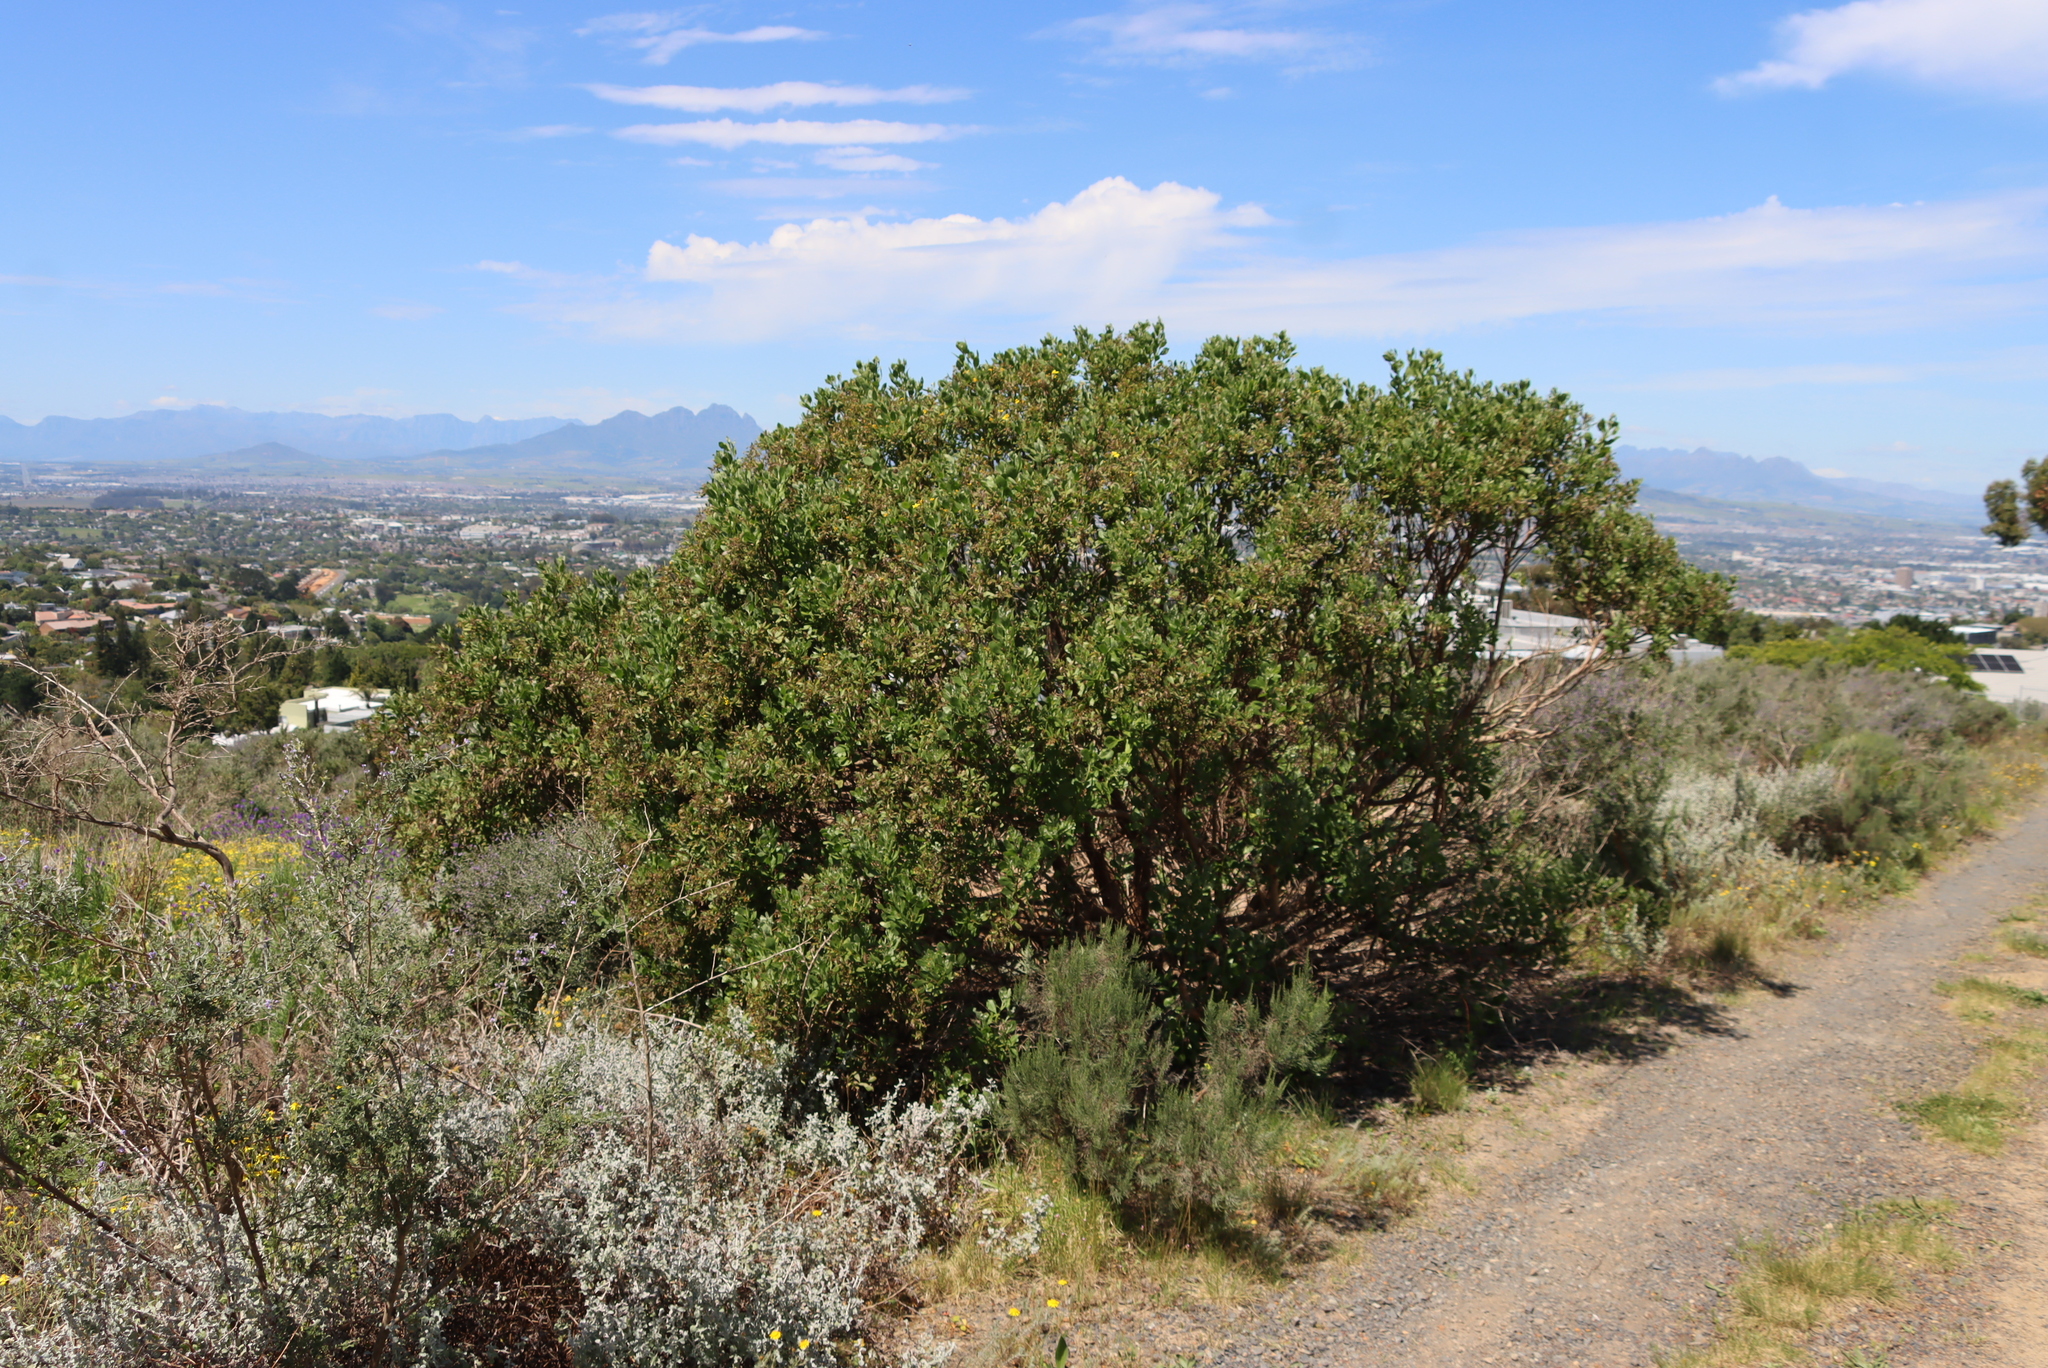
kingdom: Plantae
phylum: Tracheophyta
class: Magnoliopsida
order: Asterales
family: Asteraceae
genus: Osteospermum
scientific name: Osteospermum moniliferum
